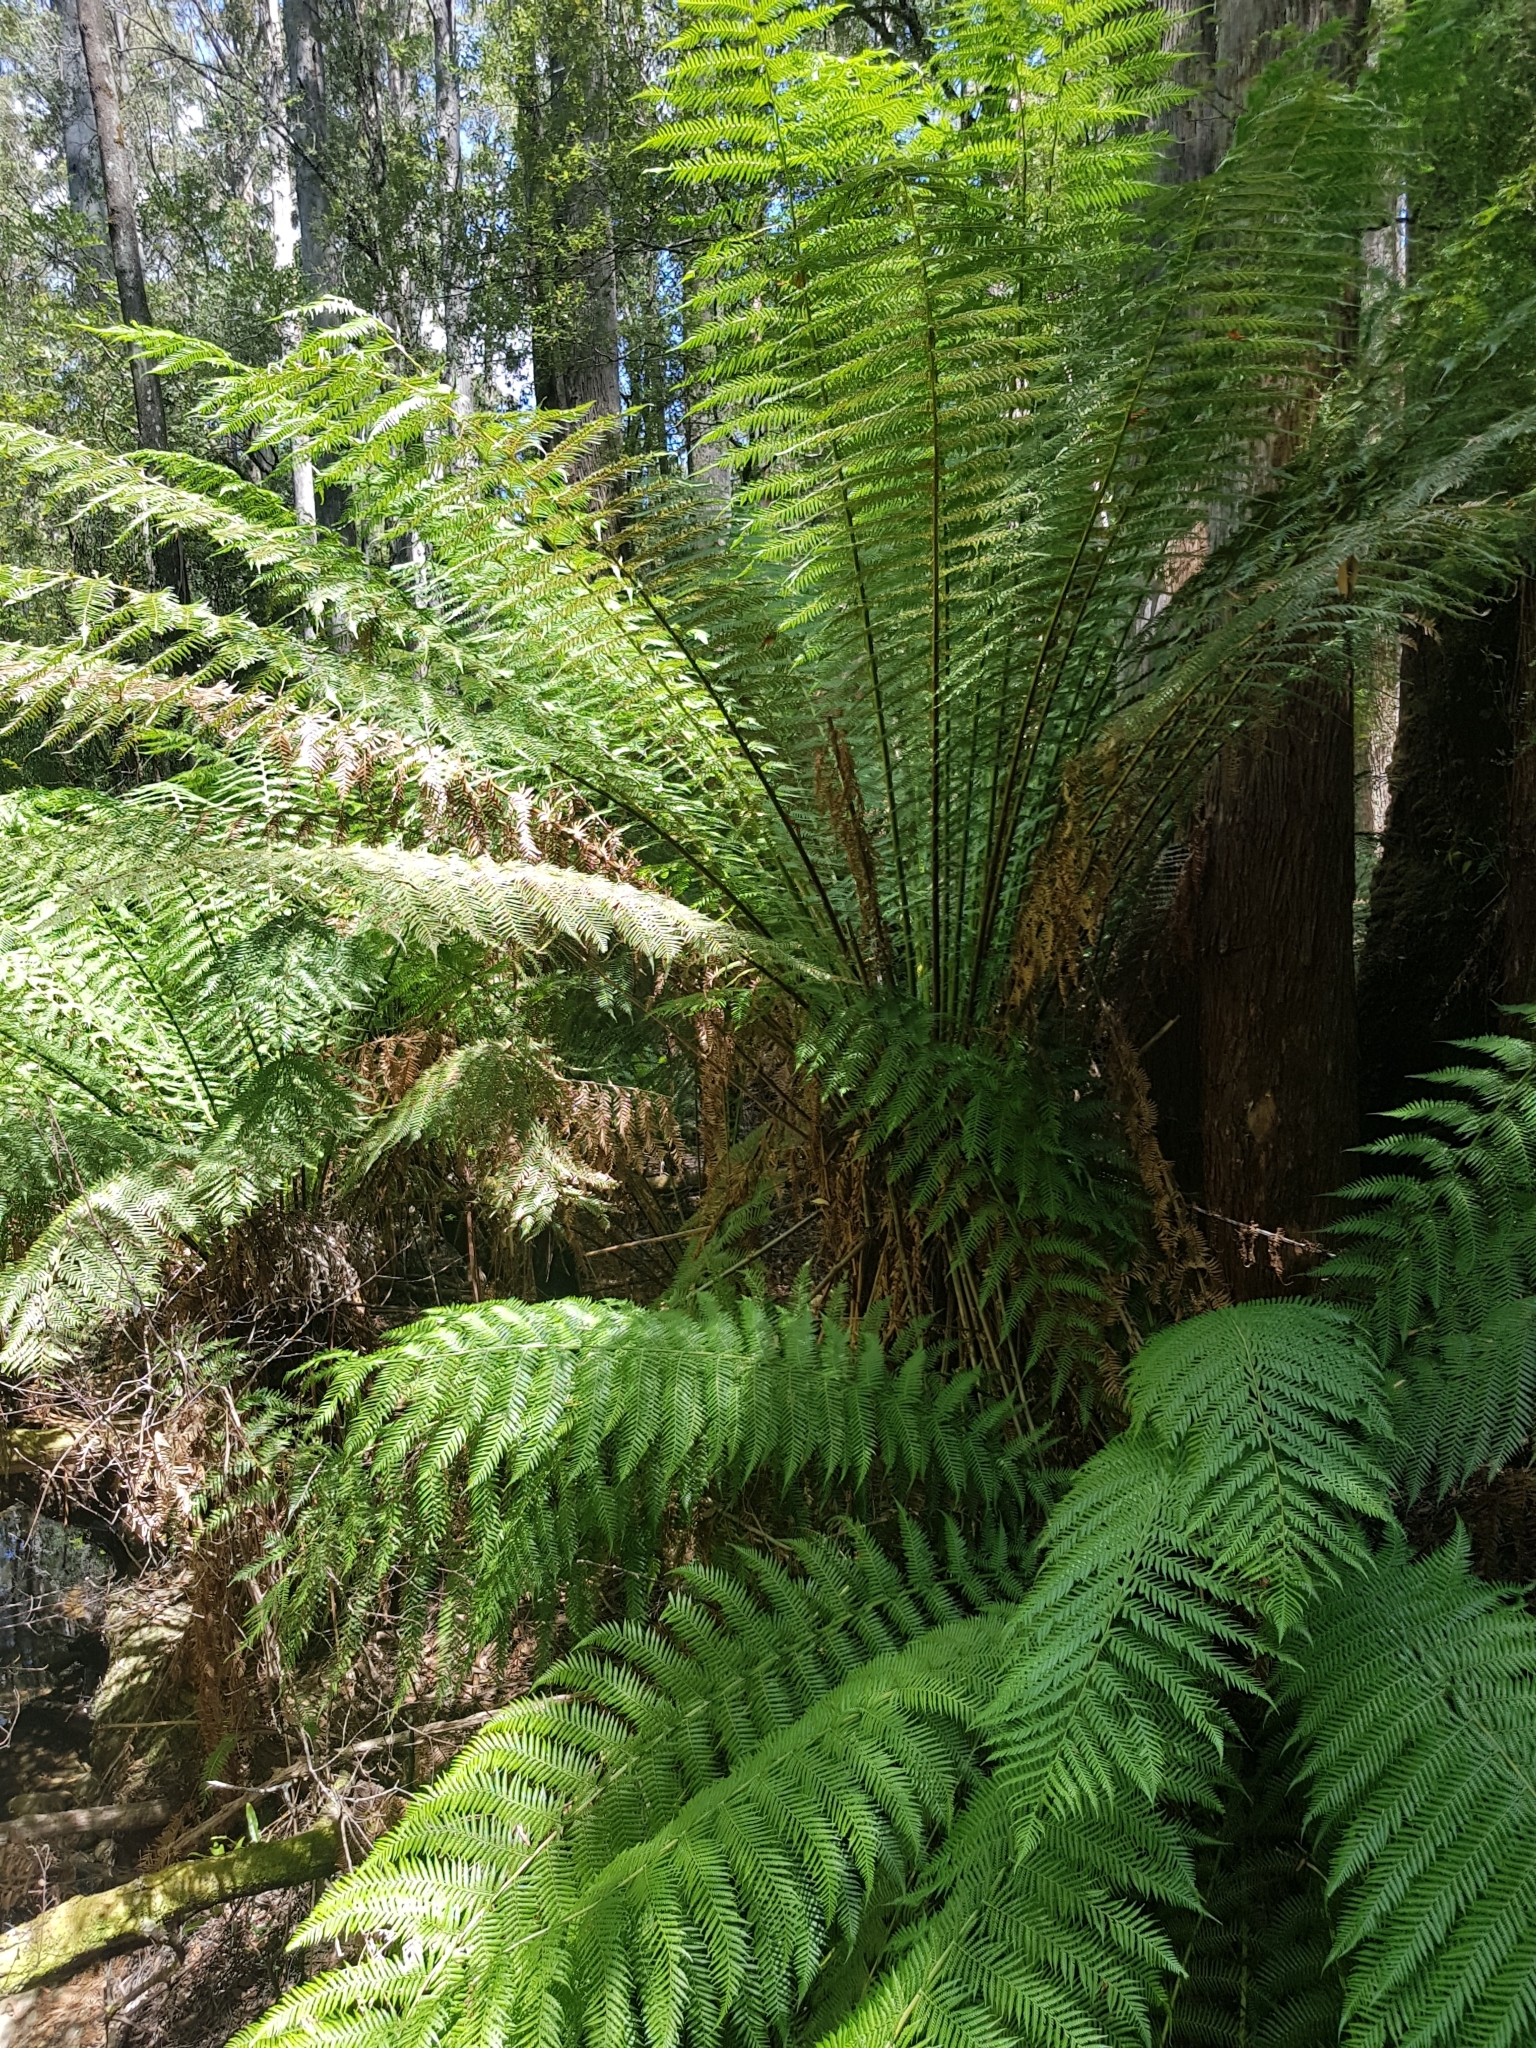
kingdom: Plantae
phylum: Tracheophyta
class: Polypodiopsida
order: Cyatheales
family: Dicksoniaceae
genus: Dicksonia
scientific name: Dicksonia antarctica
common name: Australian treefern
